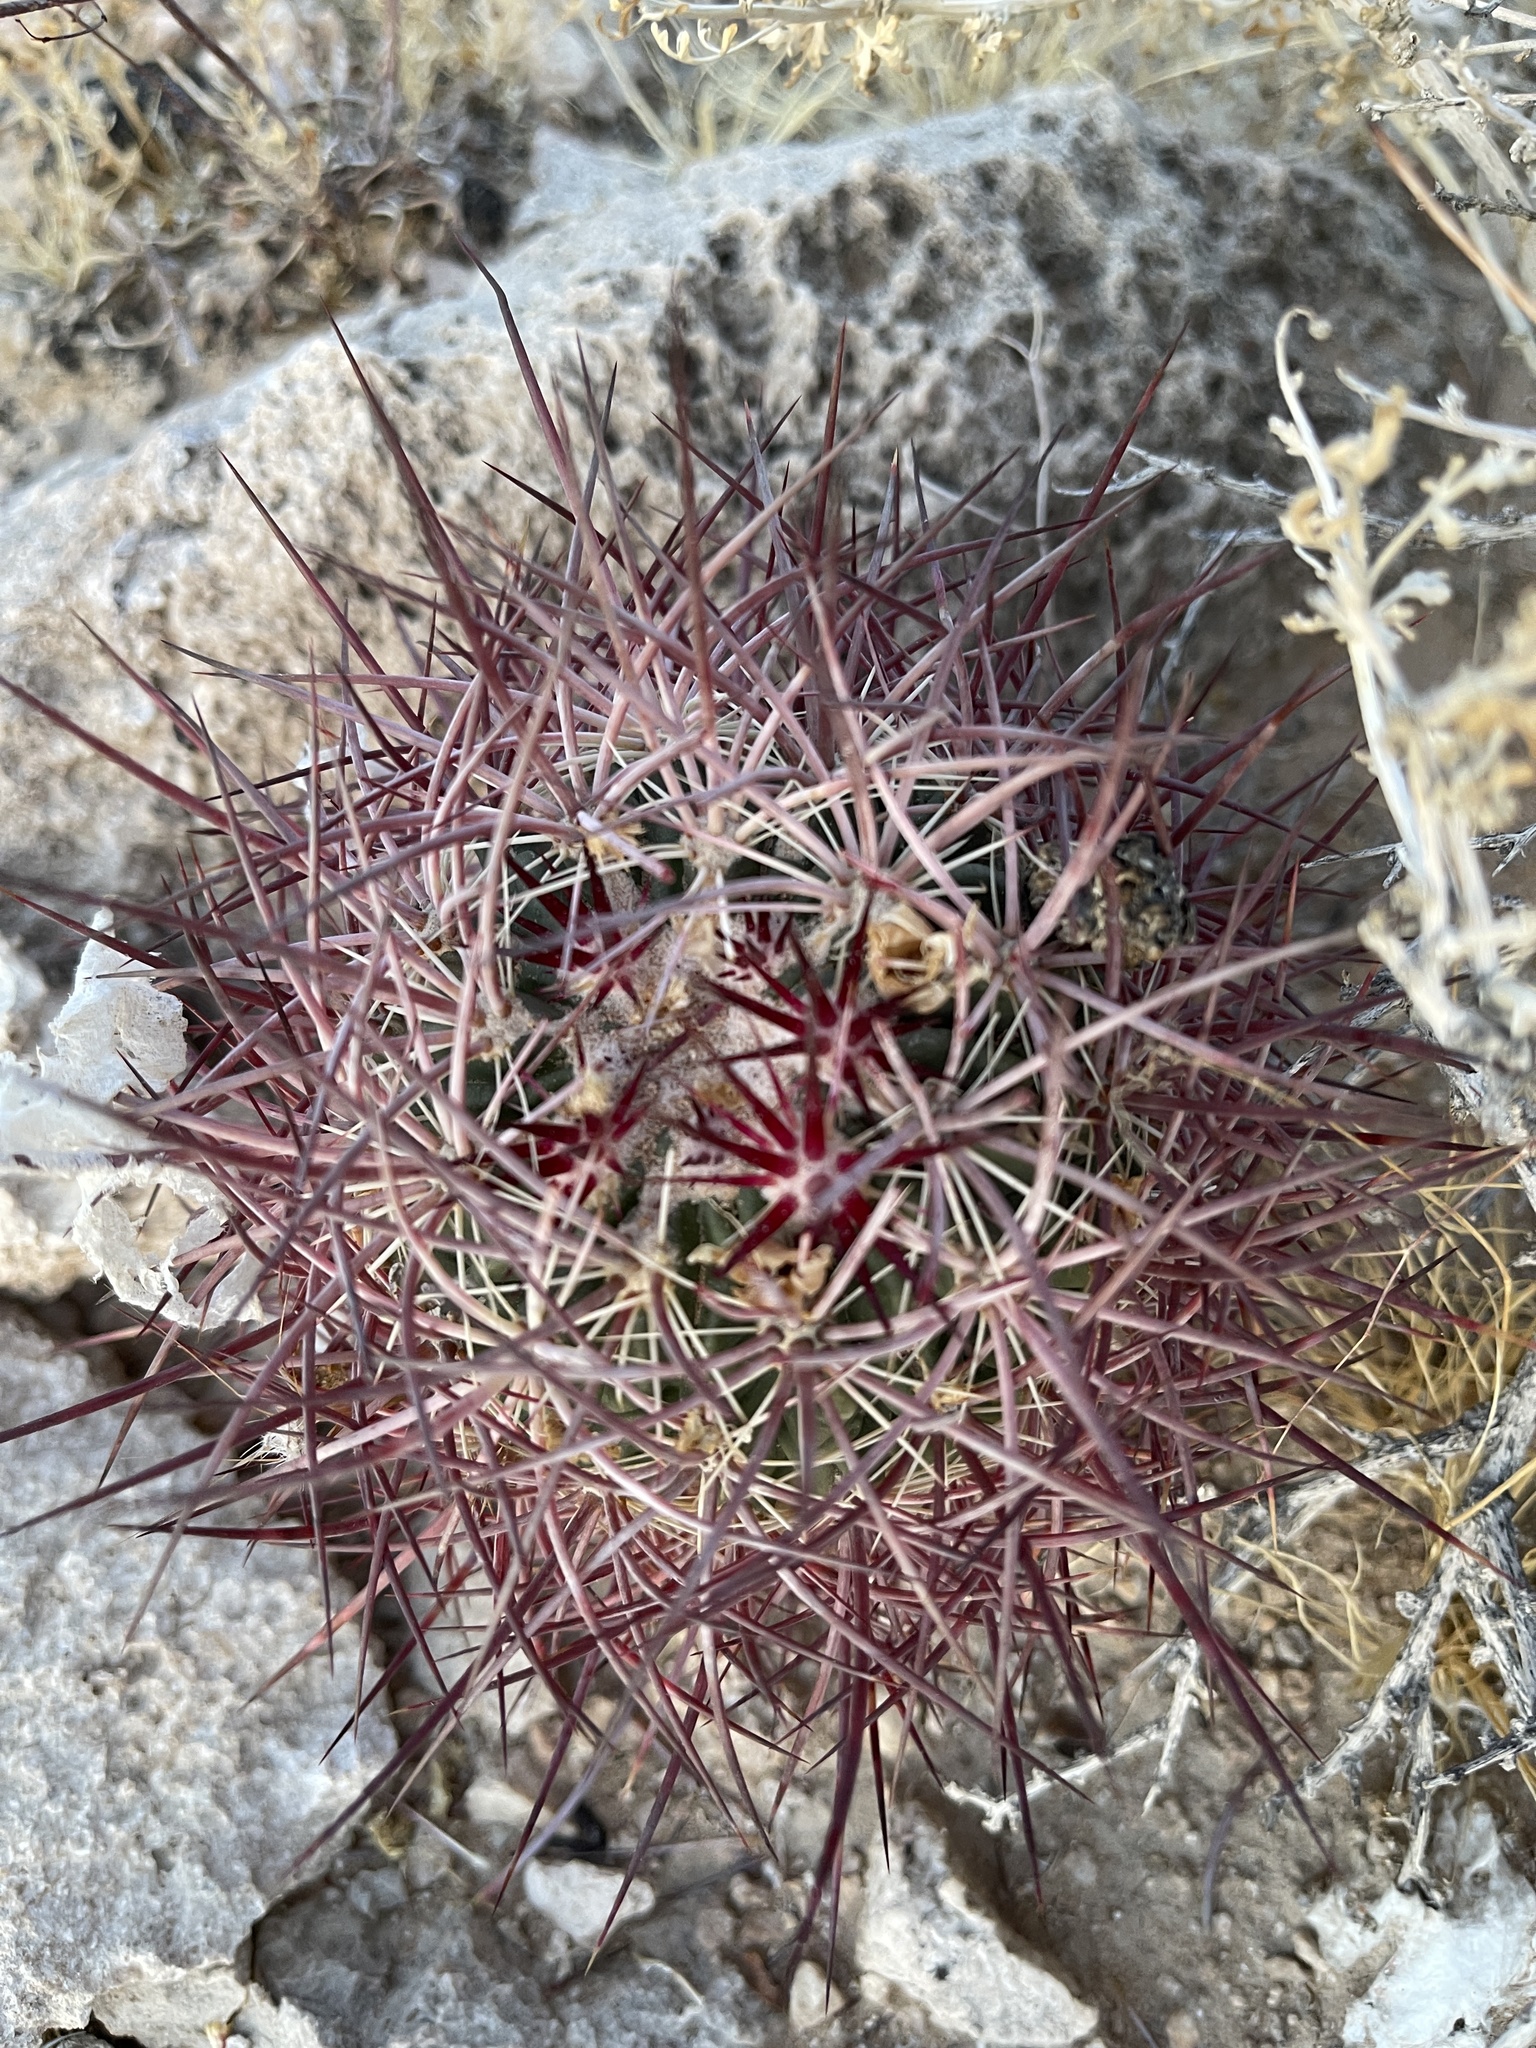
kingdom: Plantae
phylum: Tracheophyta
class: Magnoliopsida
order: Caryophyllales
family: Cactaceae
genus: Sclerocactus
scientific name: Sclerocactus johnsonii
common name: Eight-spine fishhook cactus
